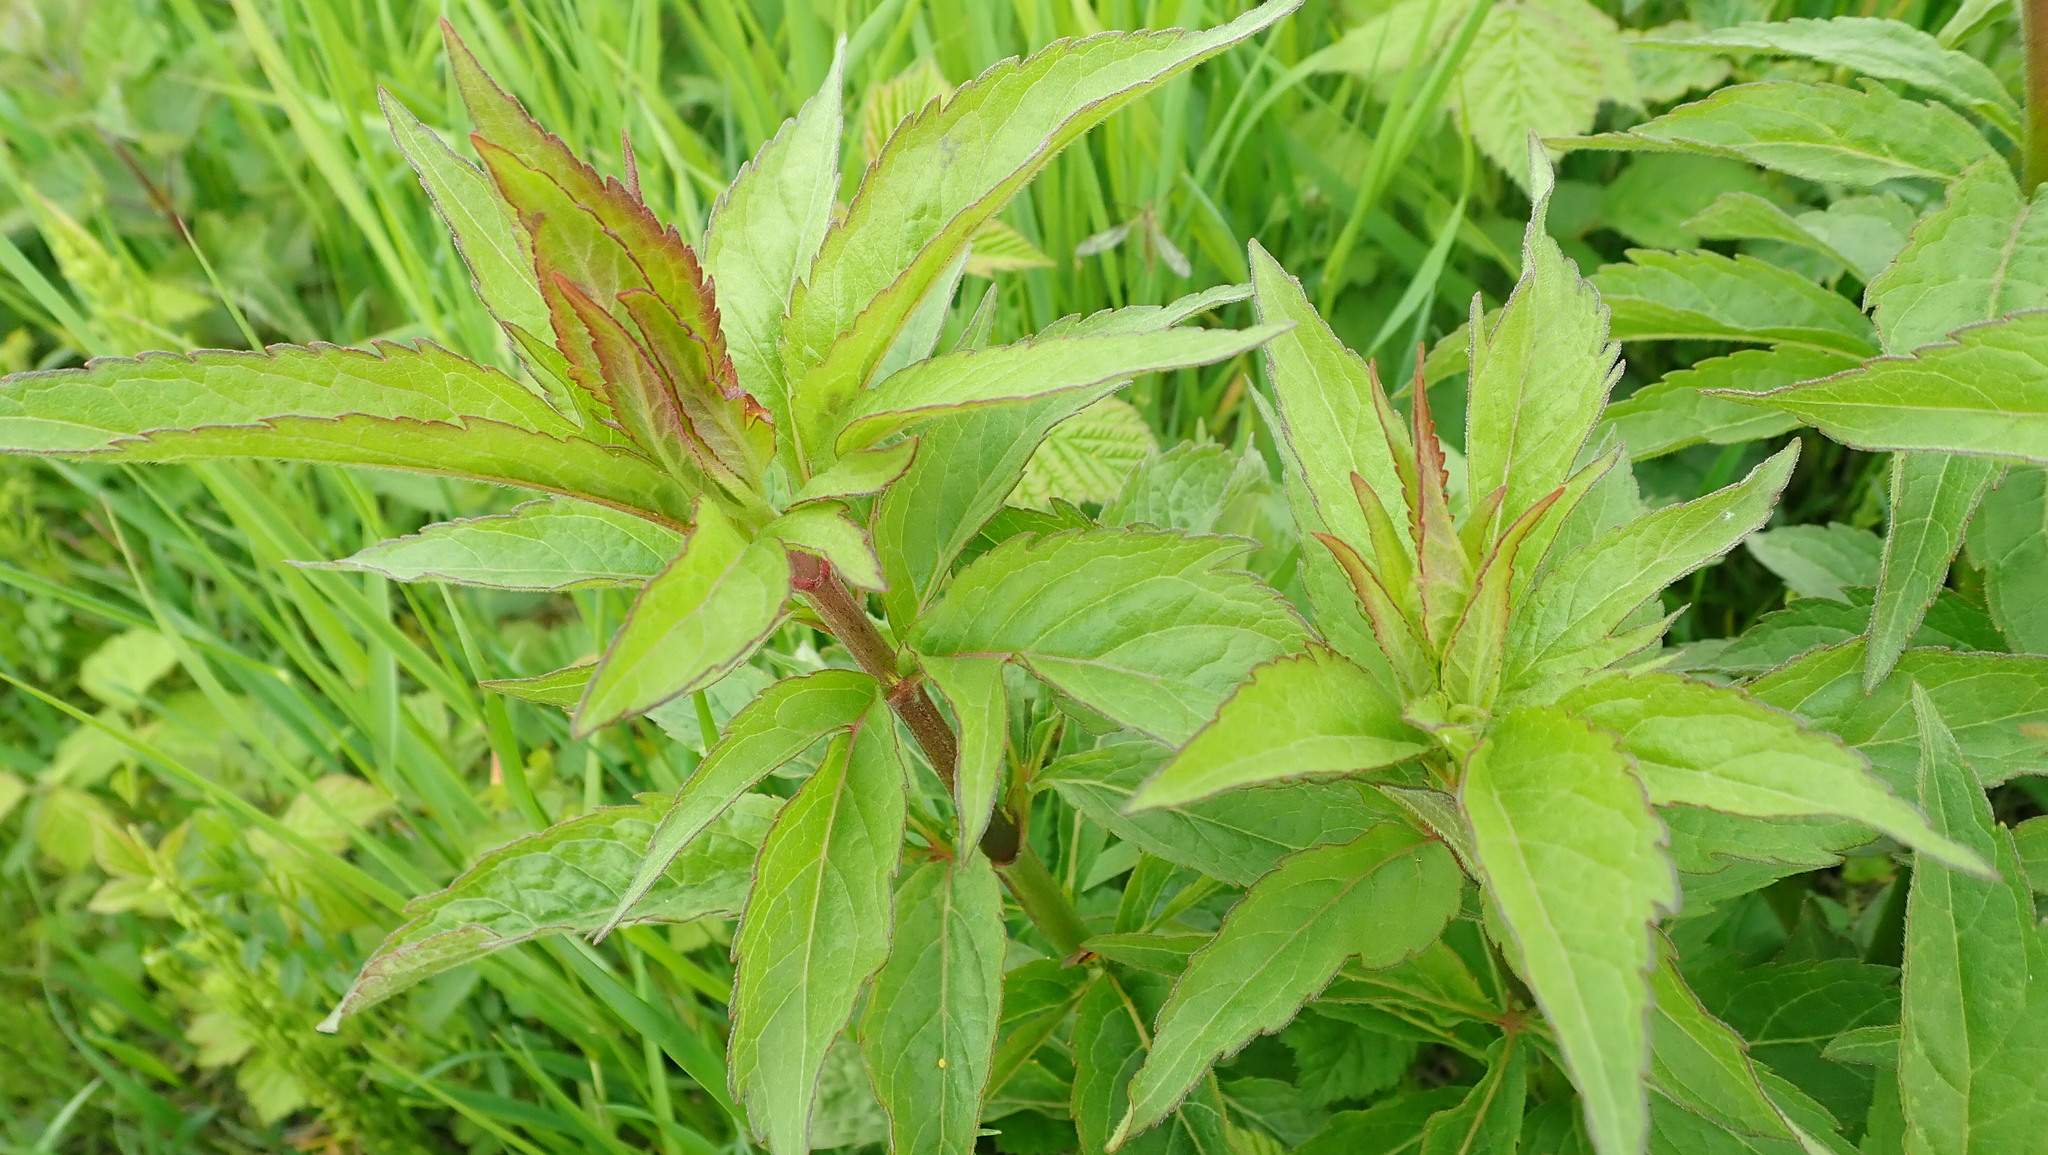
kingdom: Plantae
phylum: Tracheophyta
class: Magnoliopsida
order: Asterales
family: Asteraceae
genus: Eupatorium
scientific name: Eupatorium cannabinum
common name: Hemp-agrimony
